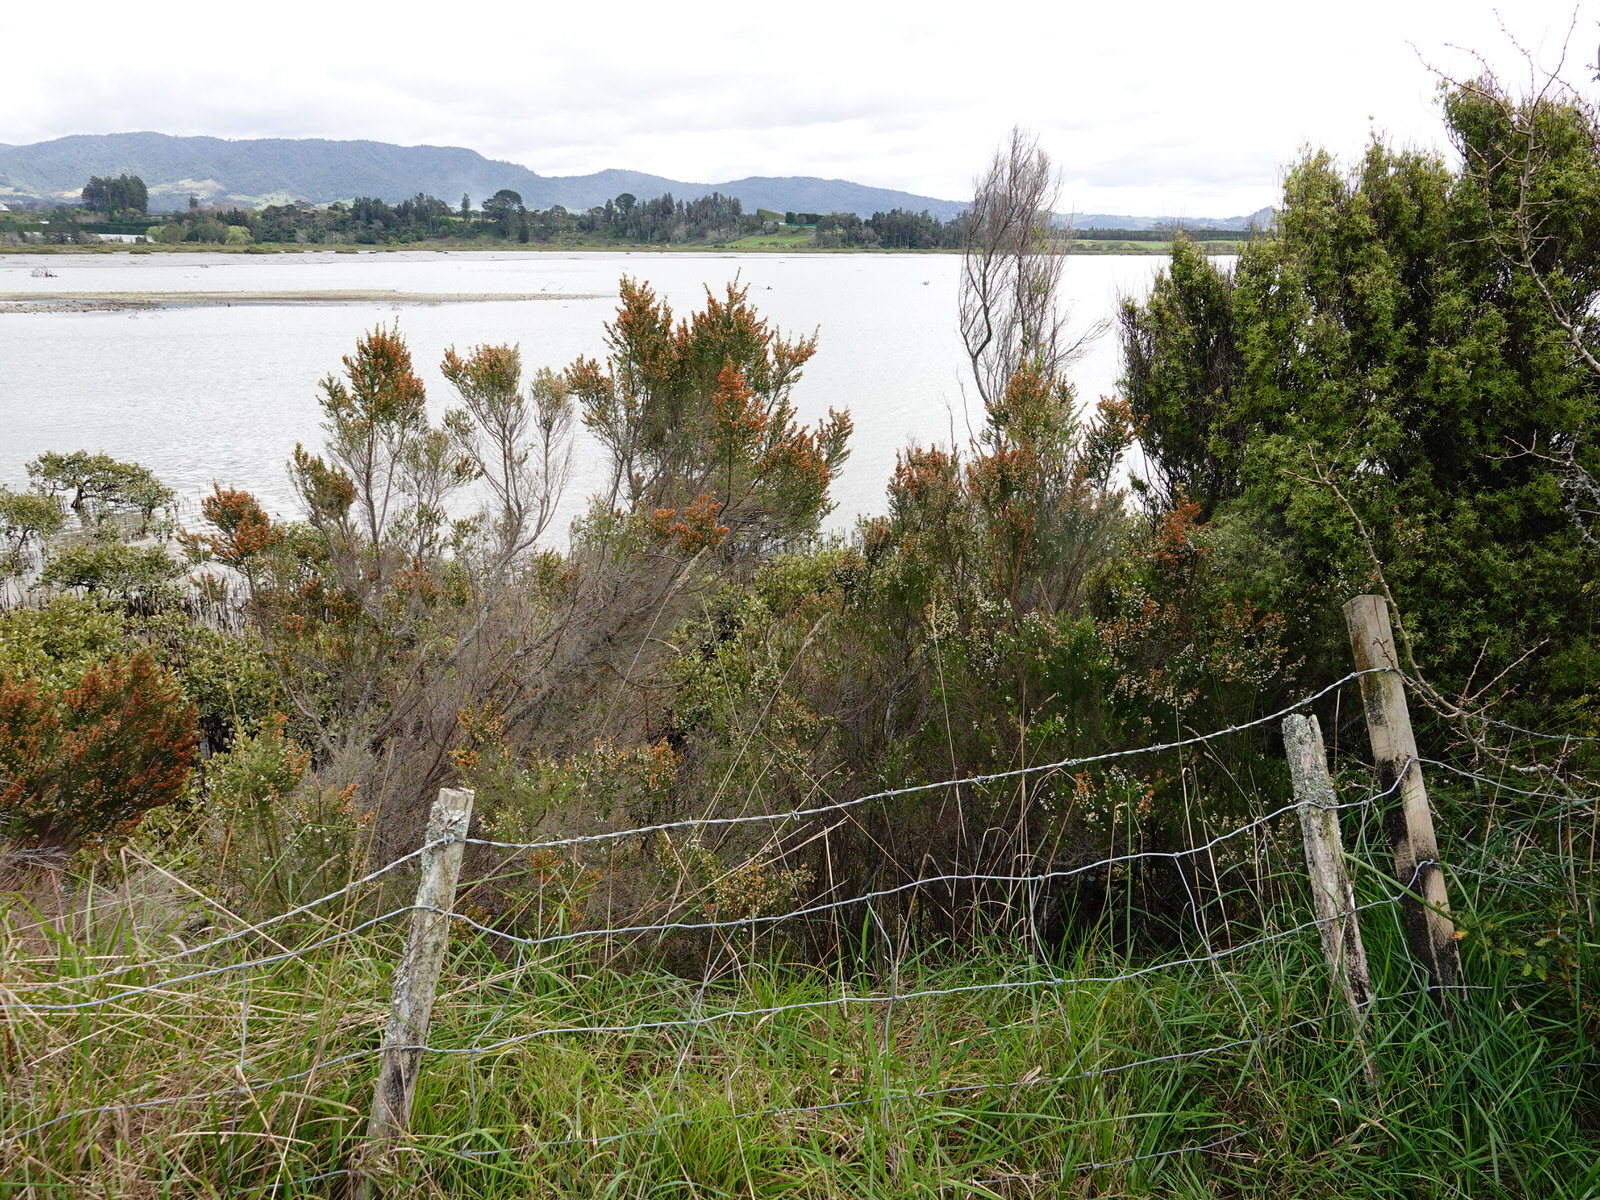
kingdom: Plantae
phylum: Tracheophyta
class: Magnoliopsida
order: Ericales
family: Ericaceae
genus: Leucopogon
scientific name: Leucopogon fasciculatus
